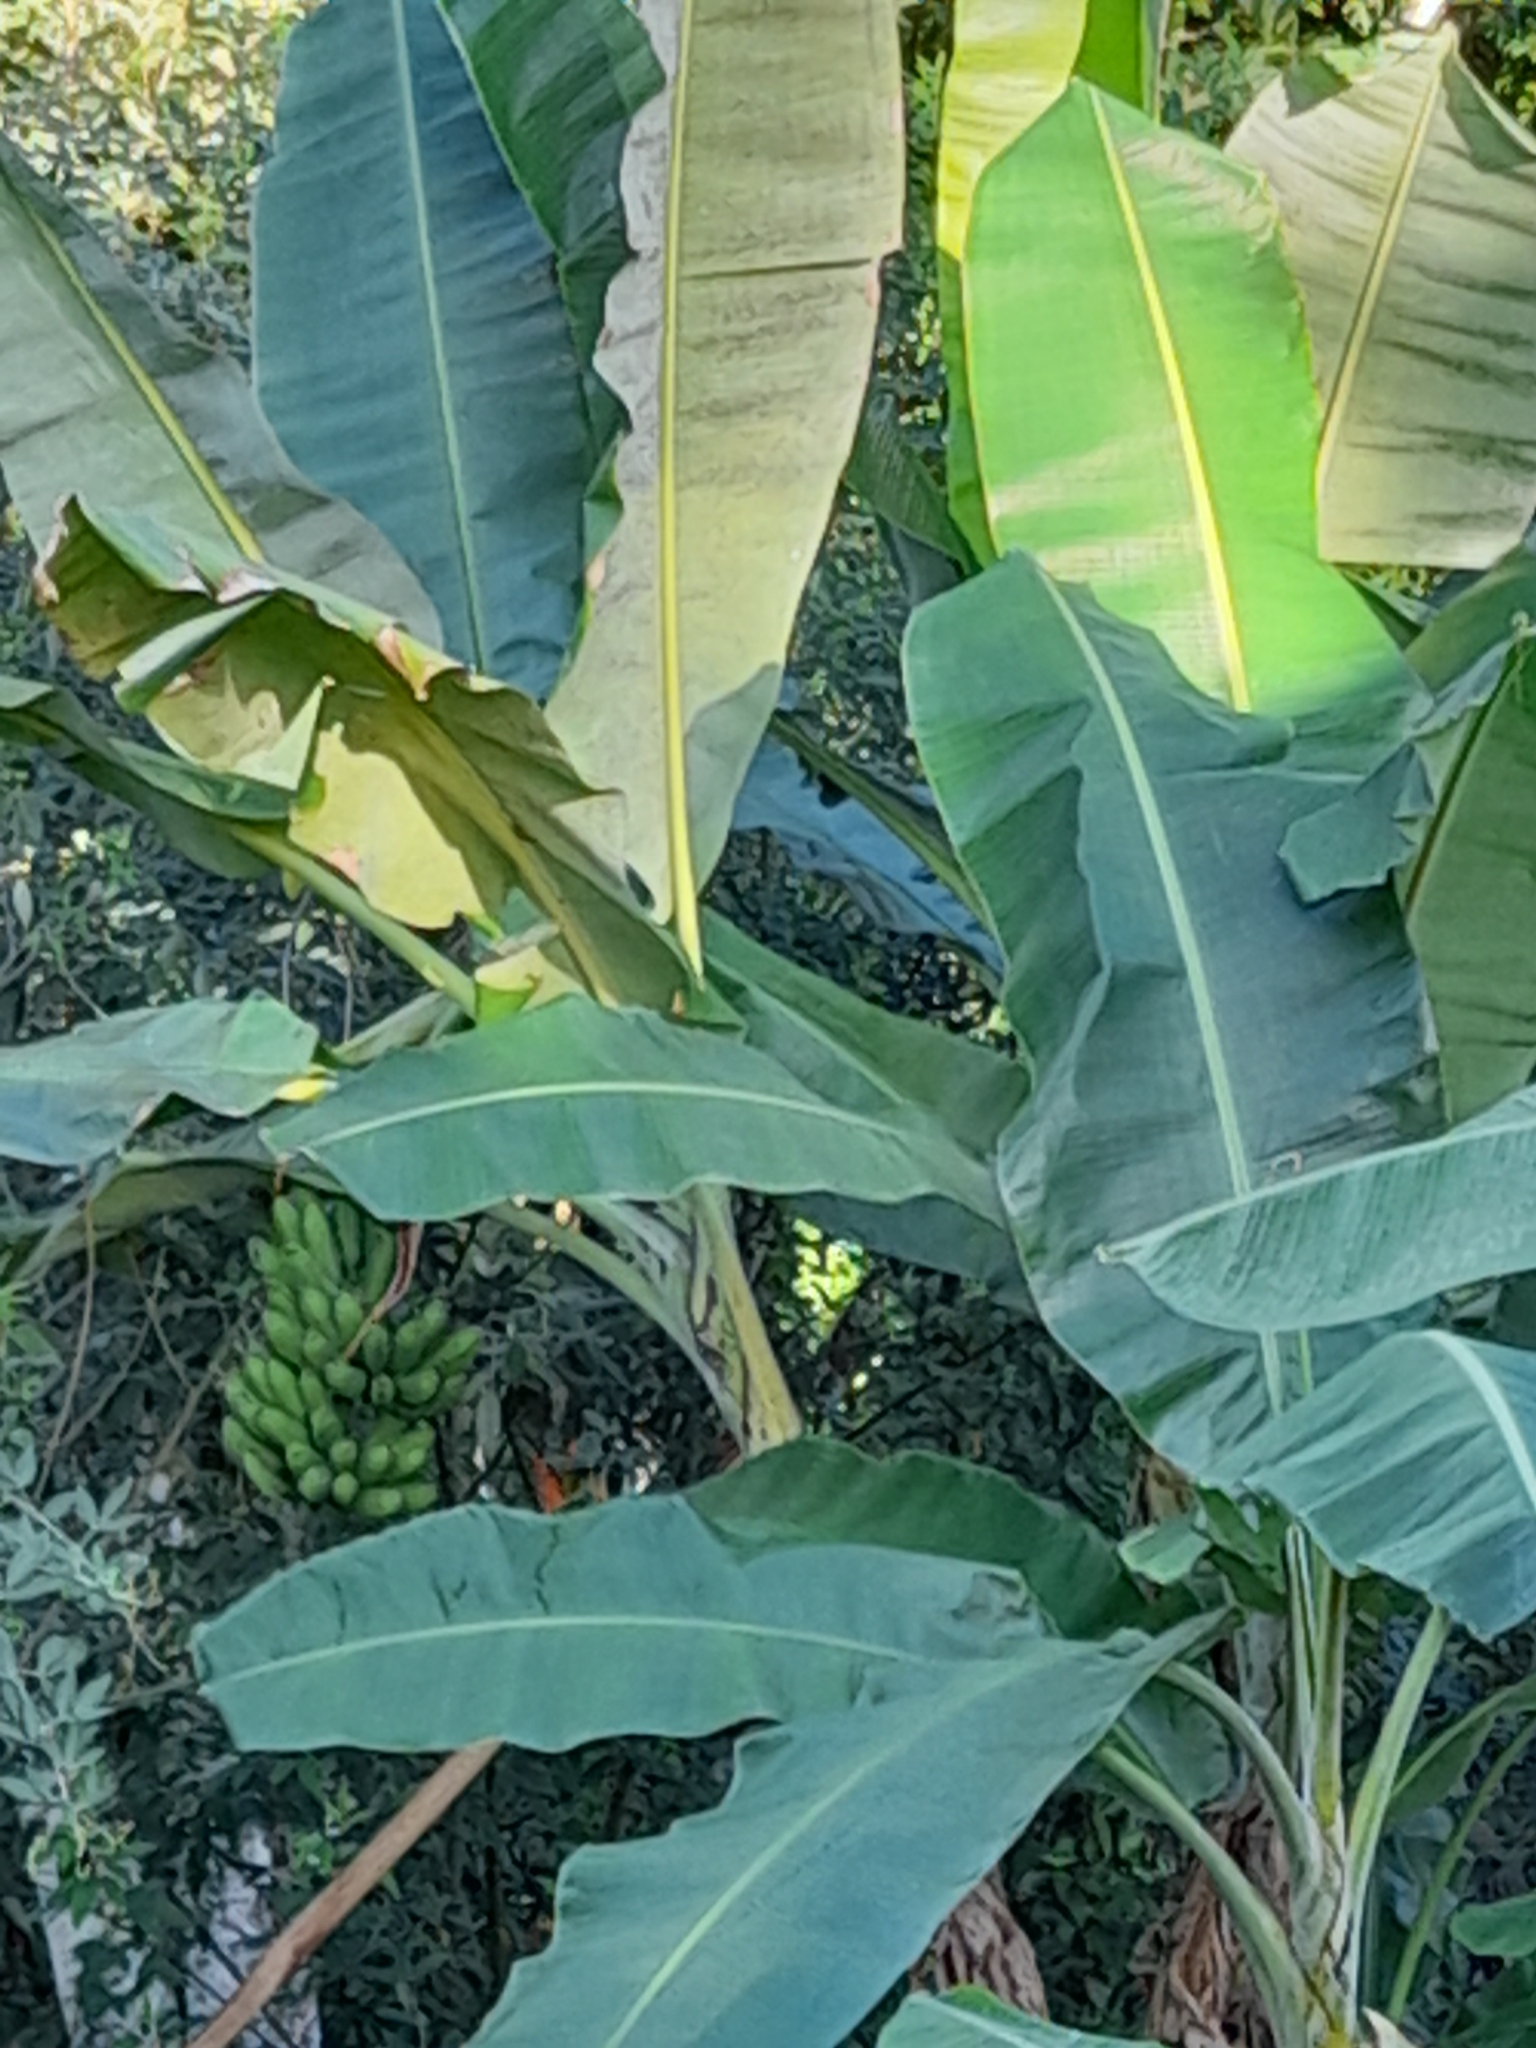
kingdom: Plantae
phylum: Tracheophyta
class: Liliopsida
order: Zingiberales
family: Musaceae
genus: Musa
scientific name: Musa acuminata
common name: Edible banana
